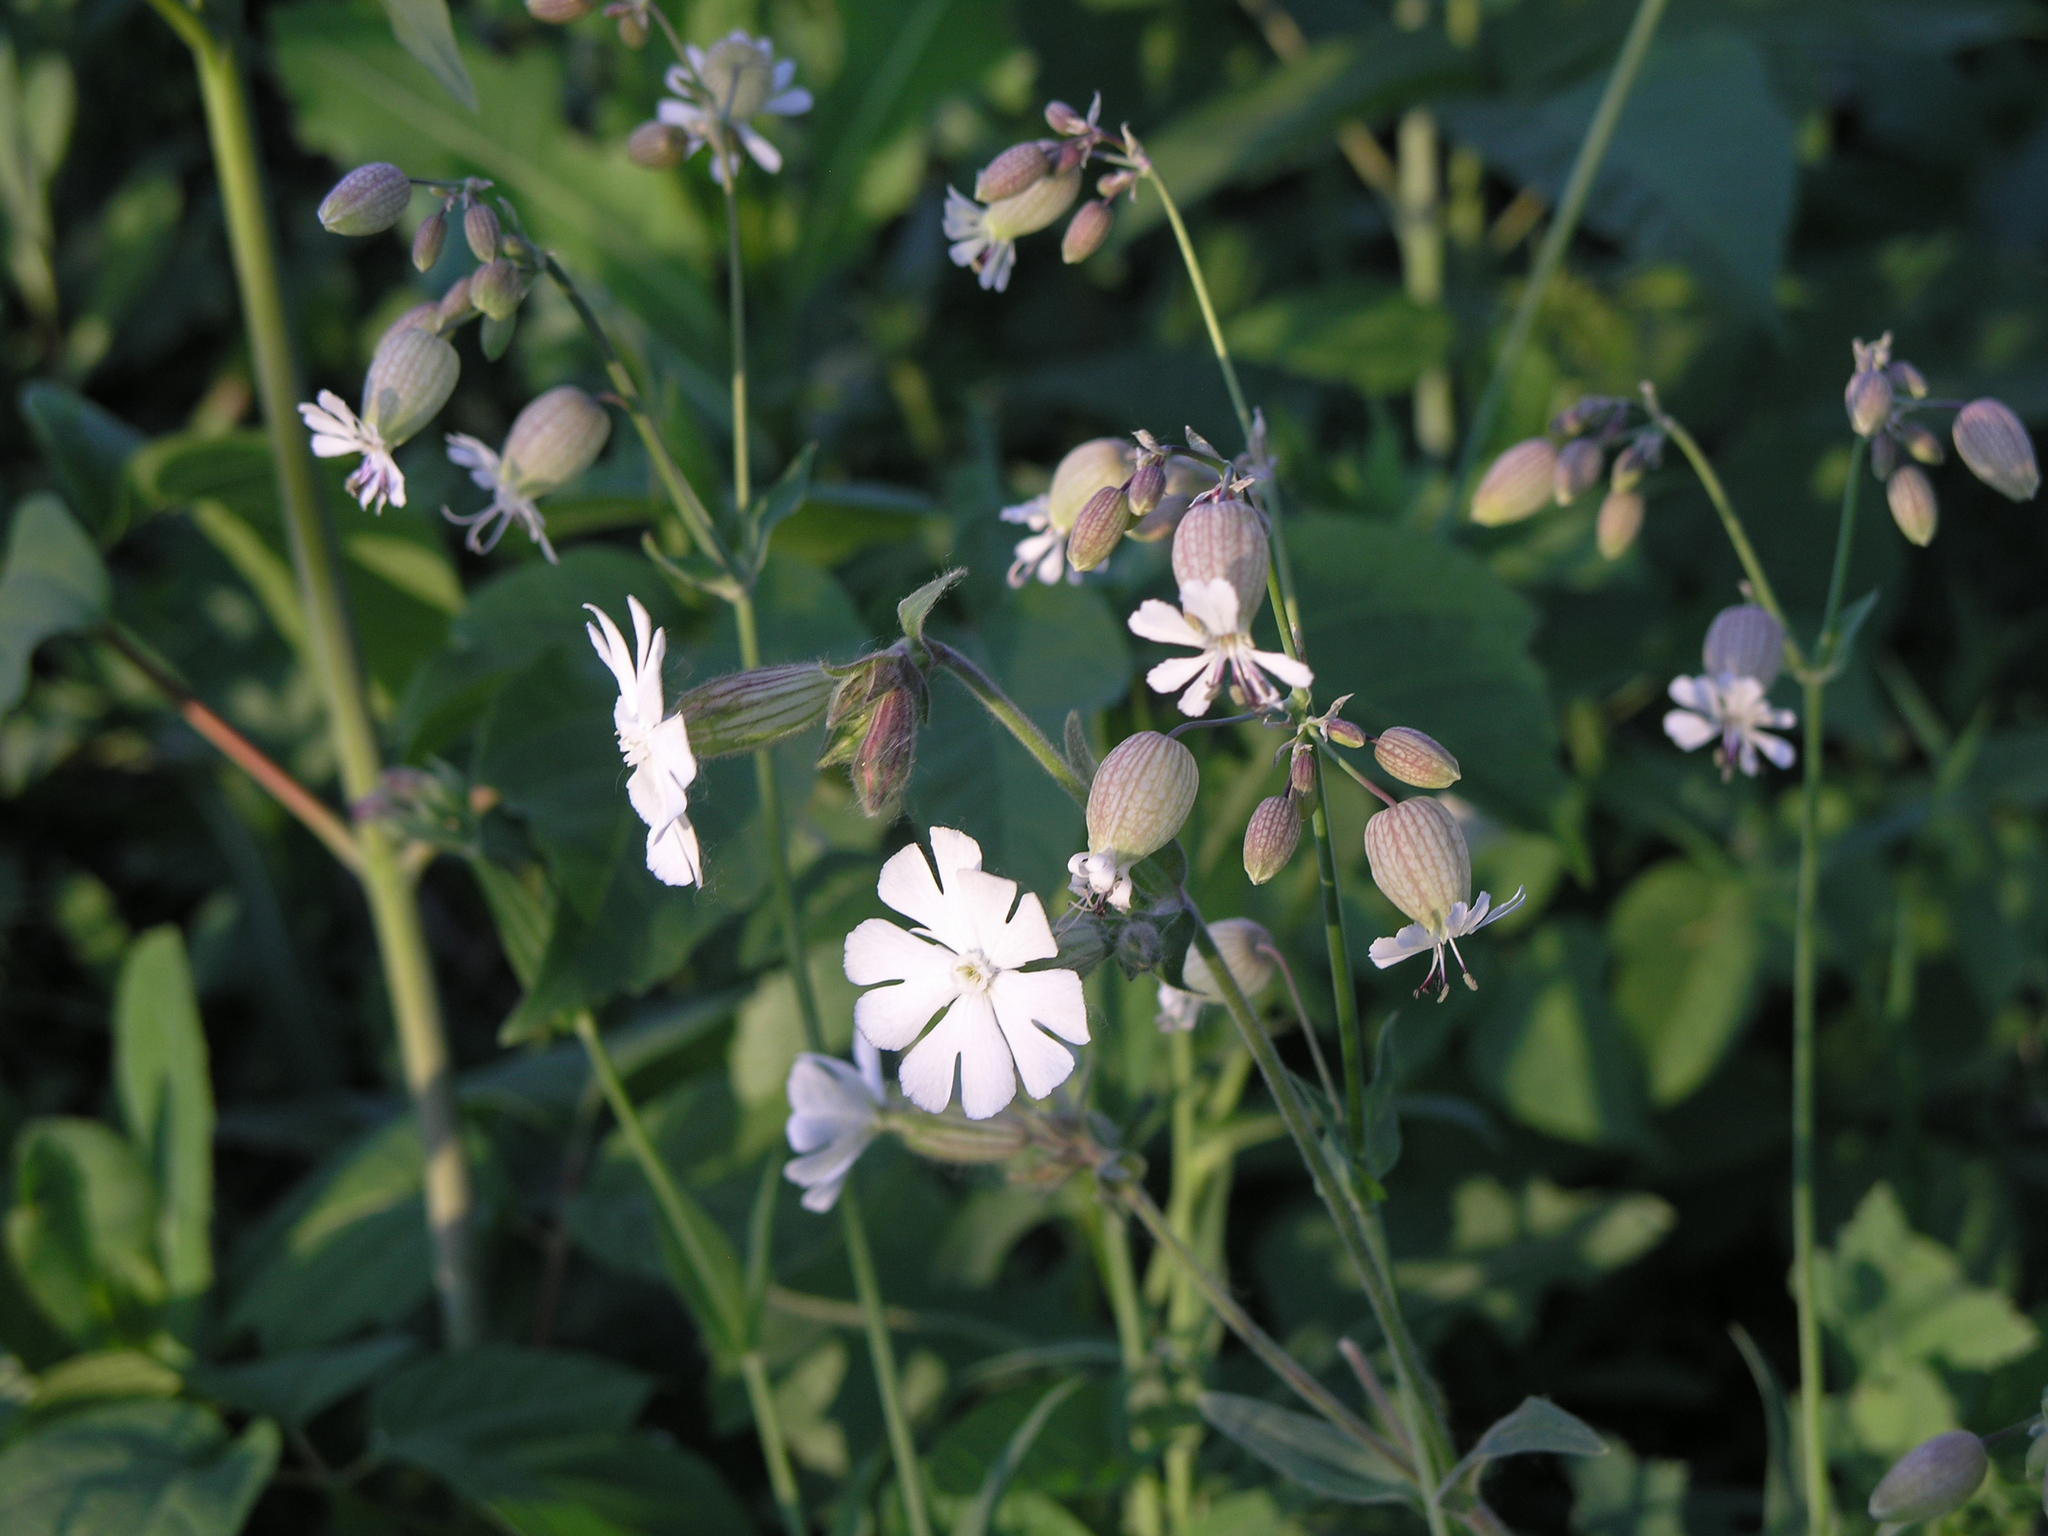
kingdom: Plantae
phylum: Tracheophyta
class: Magnoliopsida
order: Caryophyllales
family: Caryophyllaceae
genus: Silene
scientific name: Silene vulgaris
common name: Bladder campion
